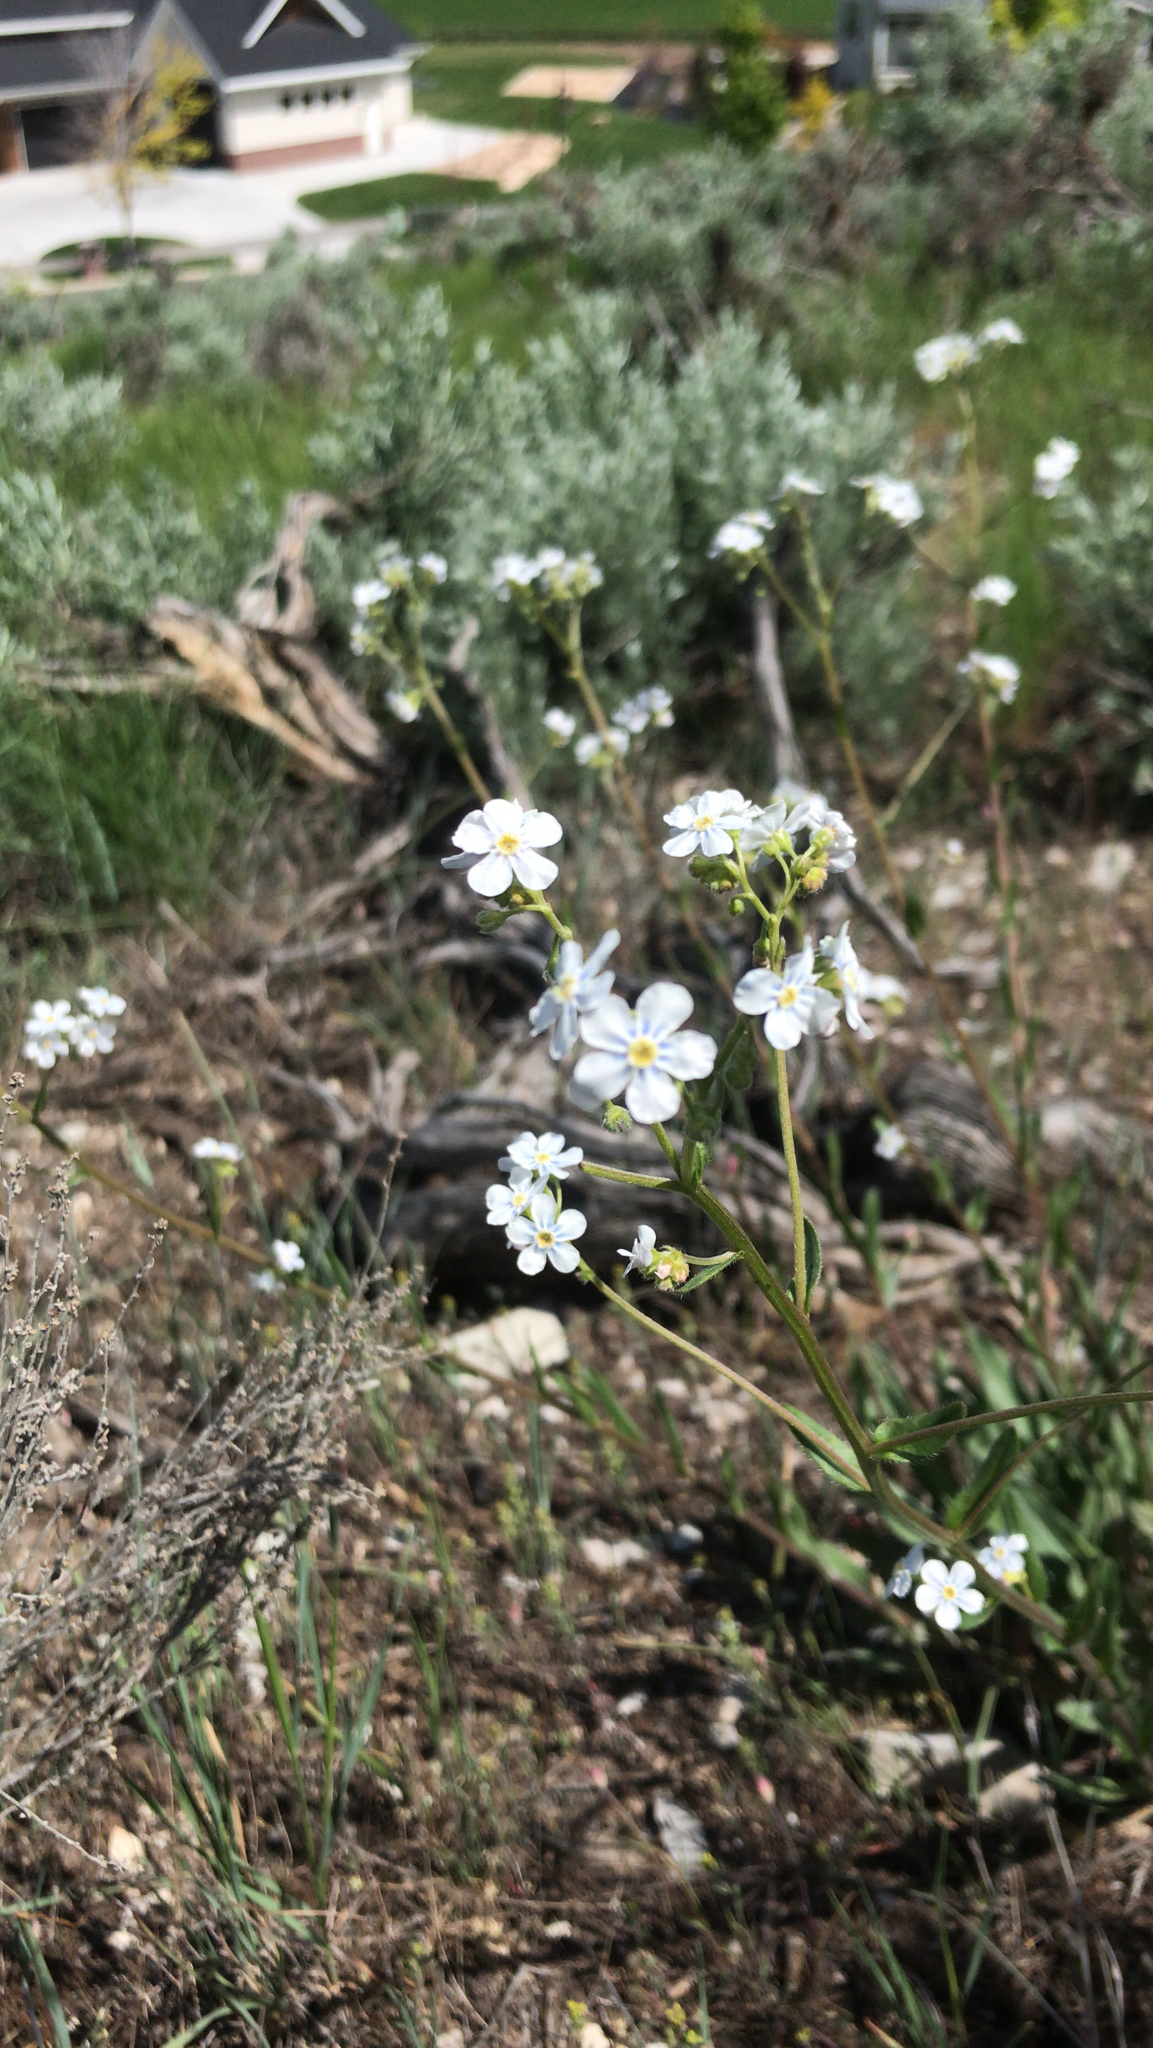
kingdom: Plantae
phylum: Tracheophyta
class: Magnoliopsida
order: Boraginales
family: Boraginaceae
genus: Hackelia
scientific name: Hackelia patens
